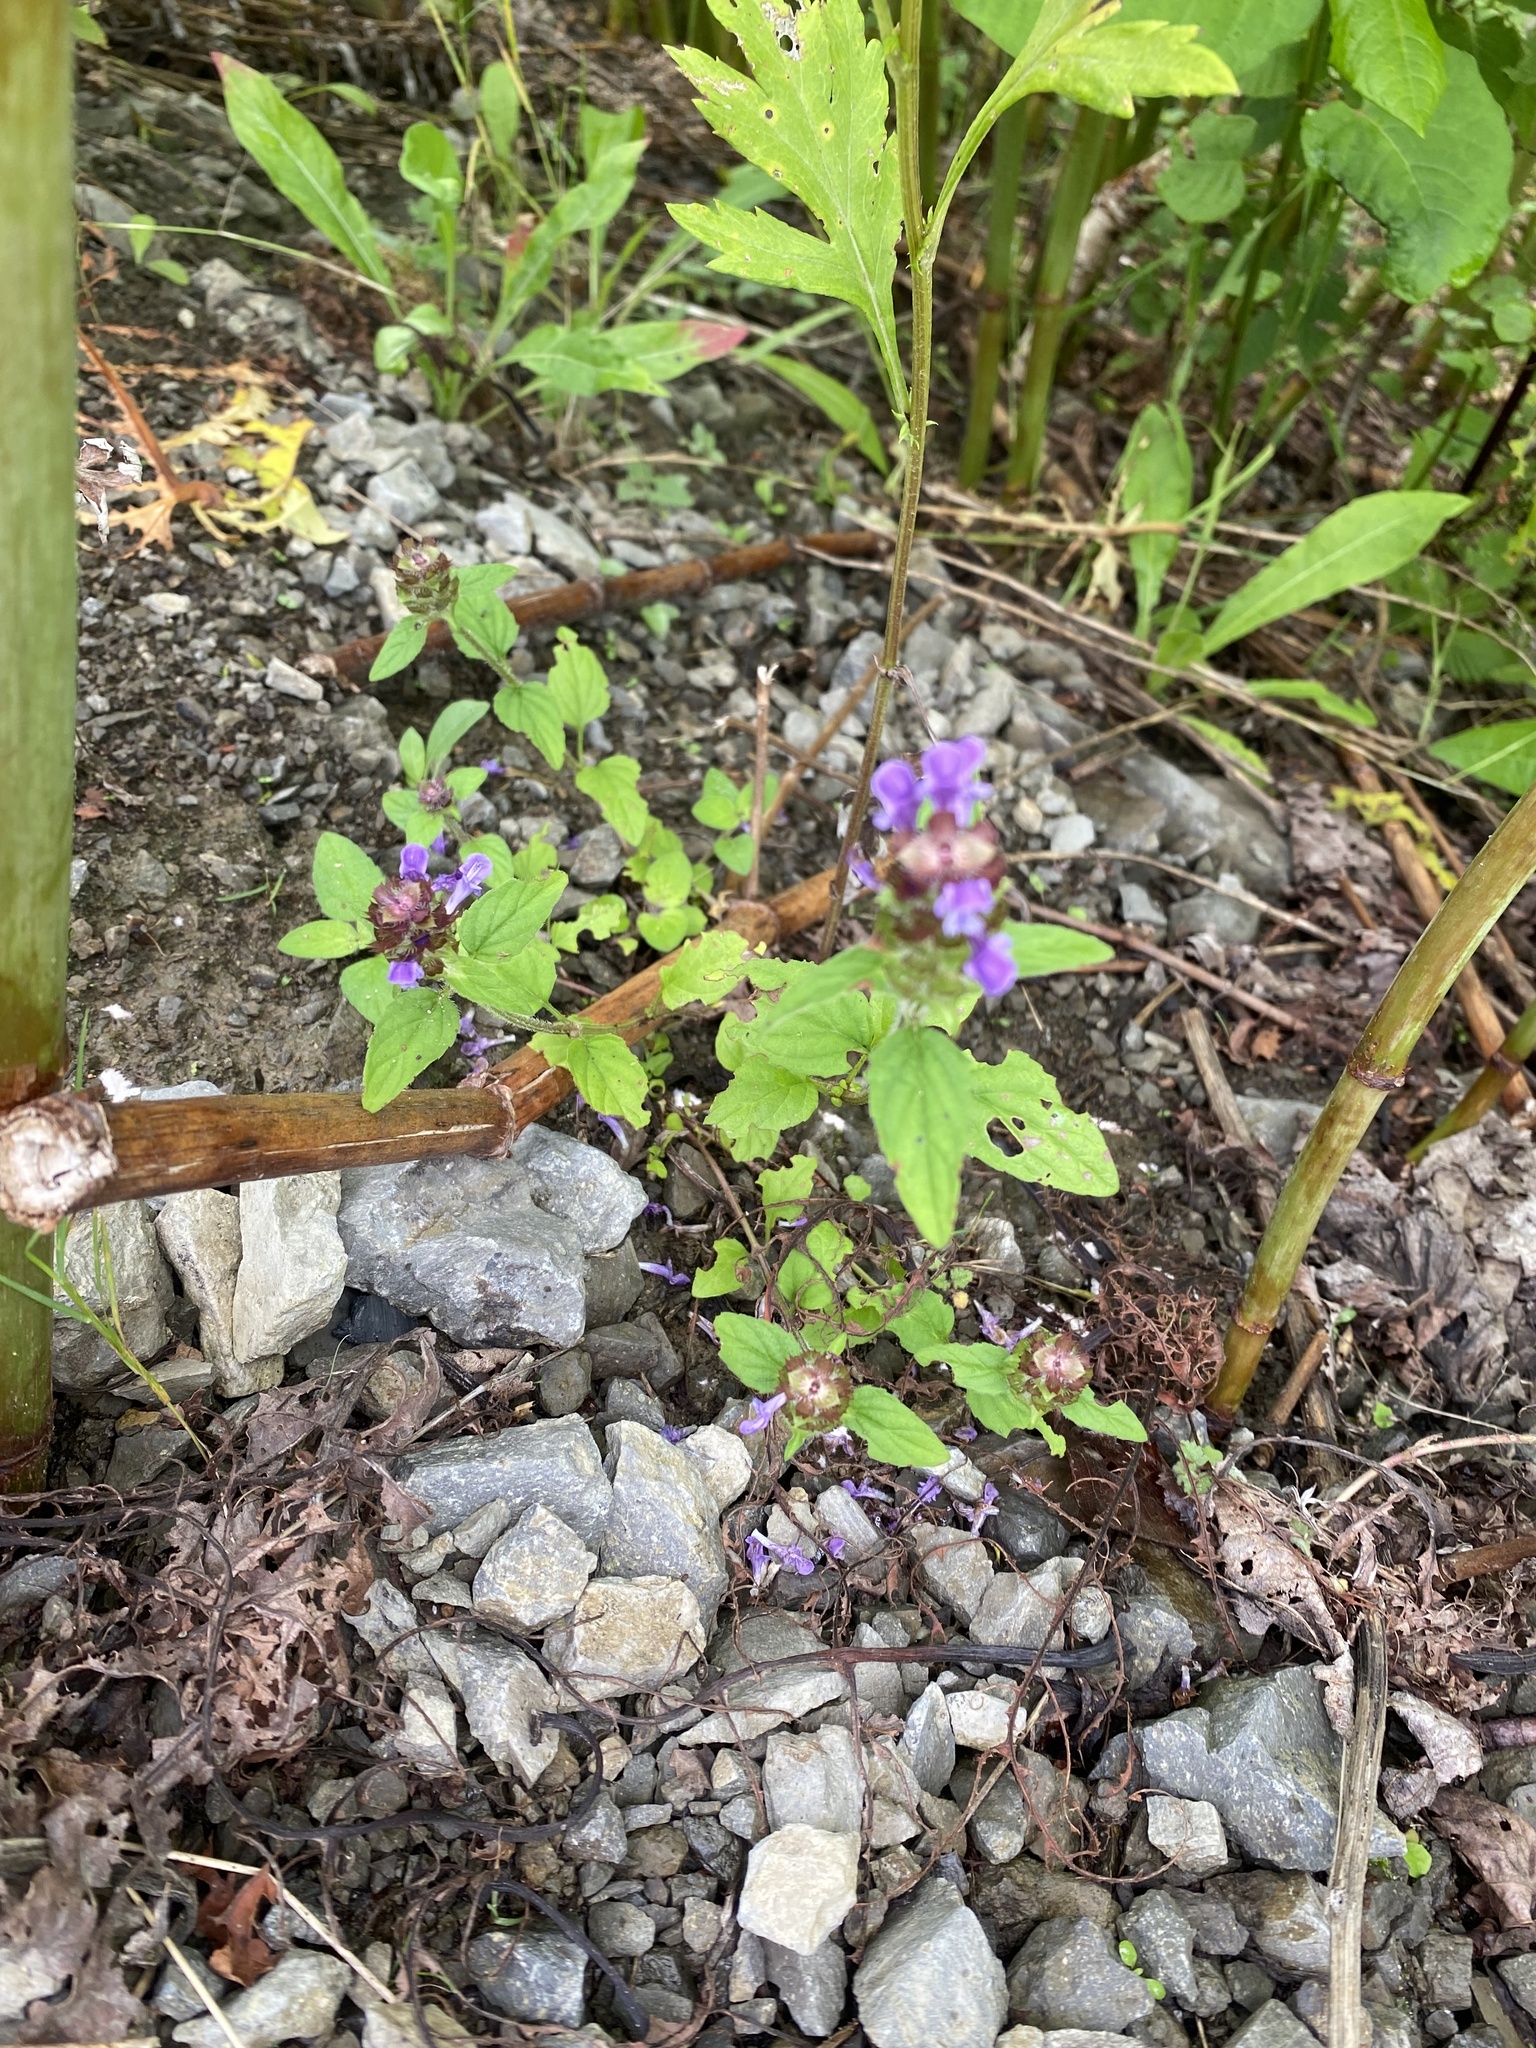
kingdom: Plantae
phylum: Tracheophyta
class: Magnoliopsida
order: Lamiales
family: Lamiaceae
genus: Prunella
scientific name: Prunella vulgaris
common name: Heal-all
